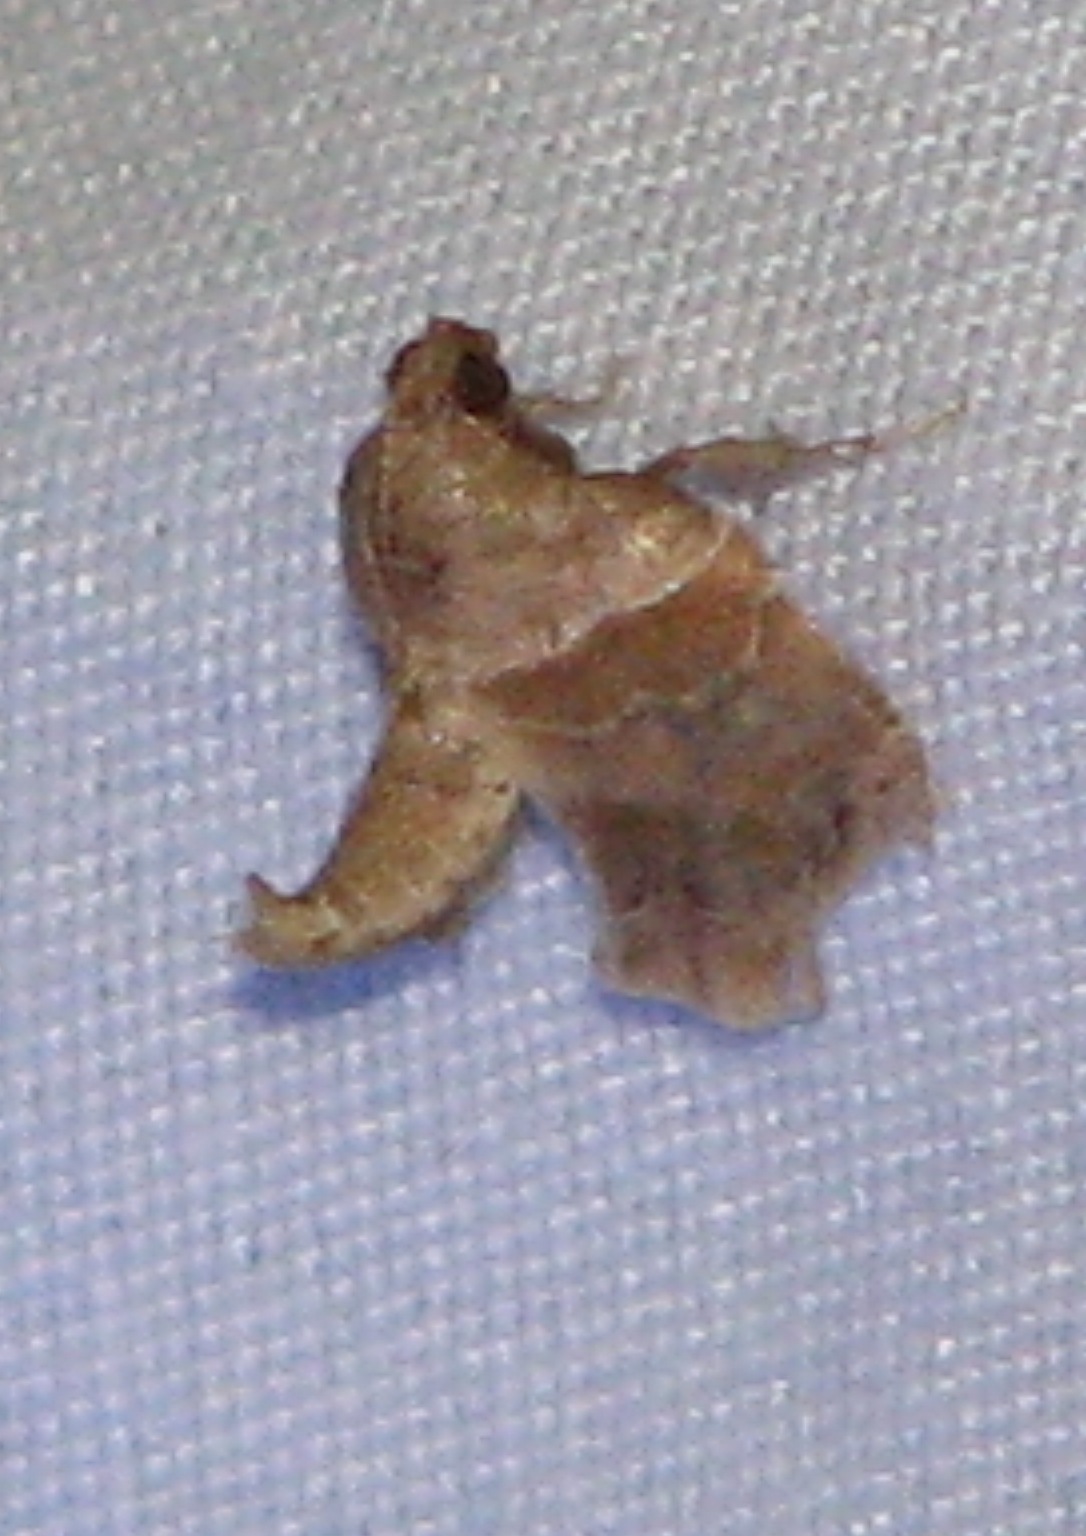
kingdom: Animalia
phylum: Arthropoda
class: Insecta
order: Lepidoptera
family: Pyralidae
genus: Tosale
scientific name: Tosale aucta
